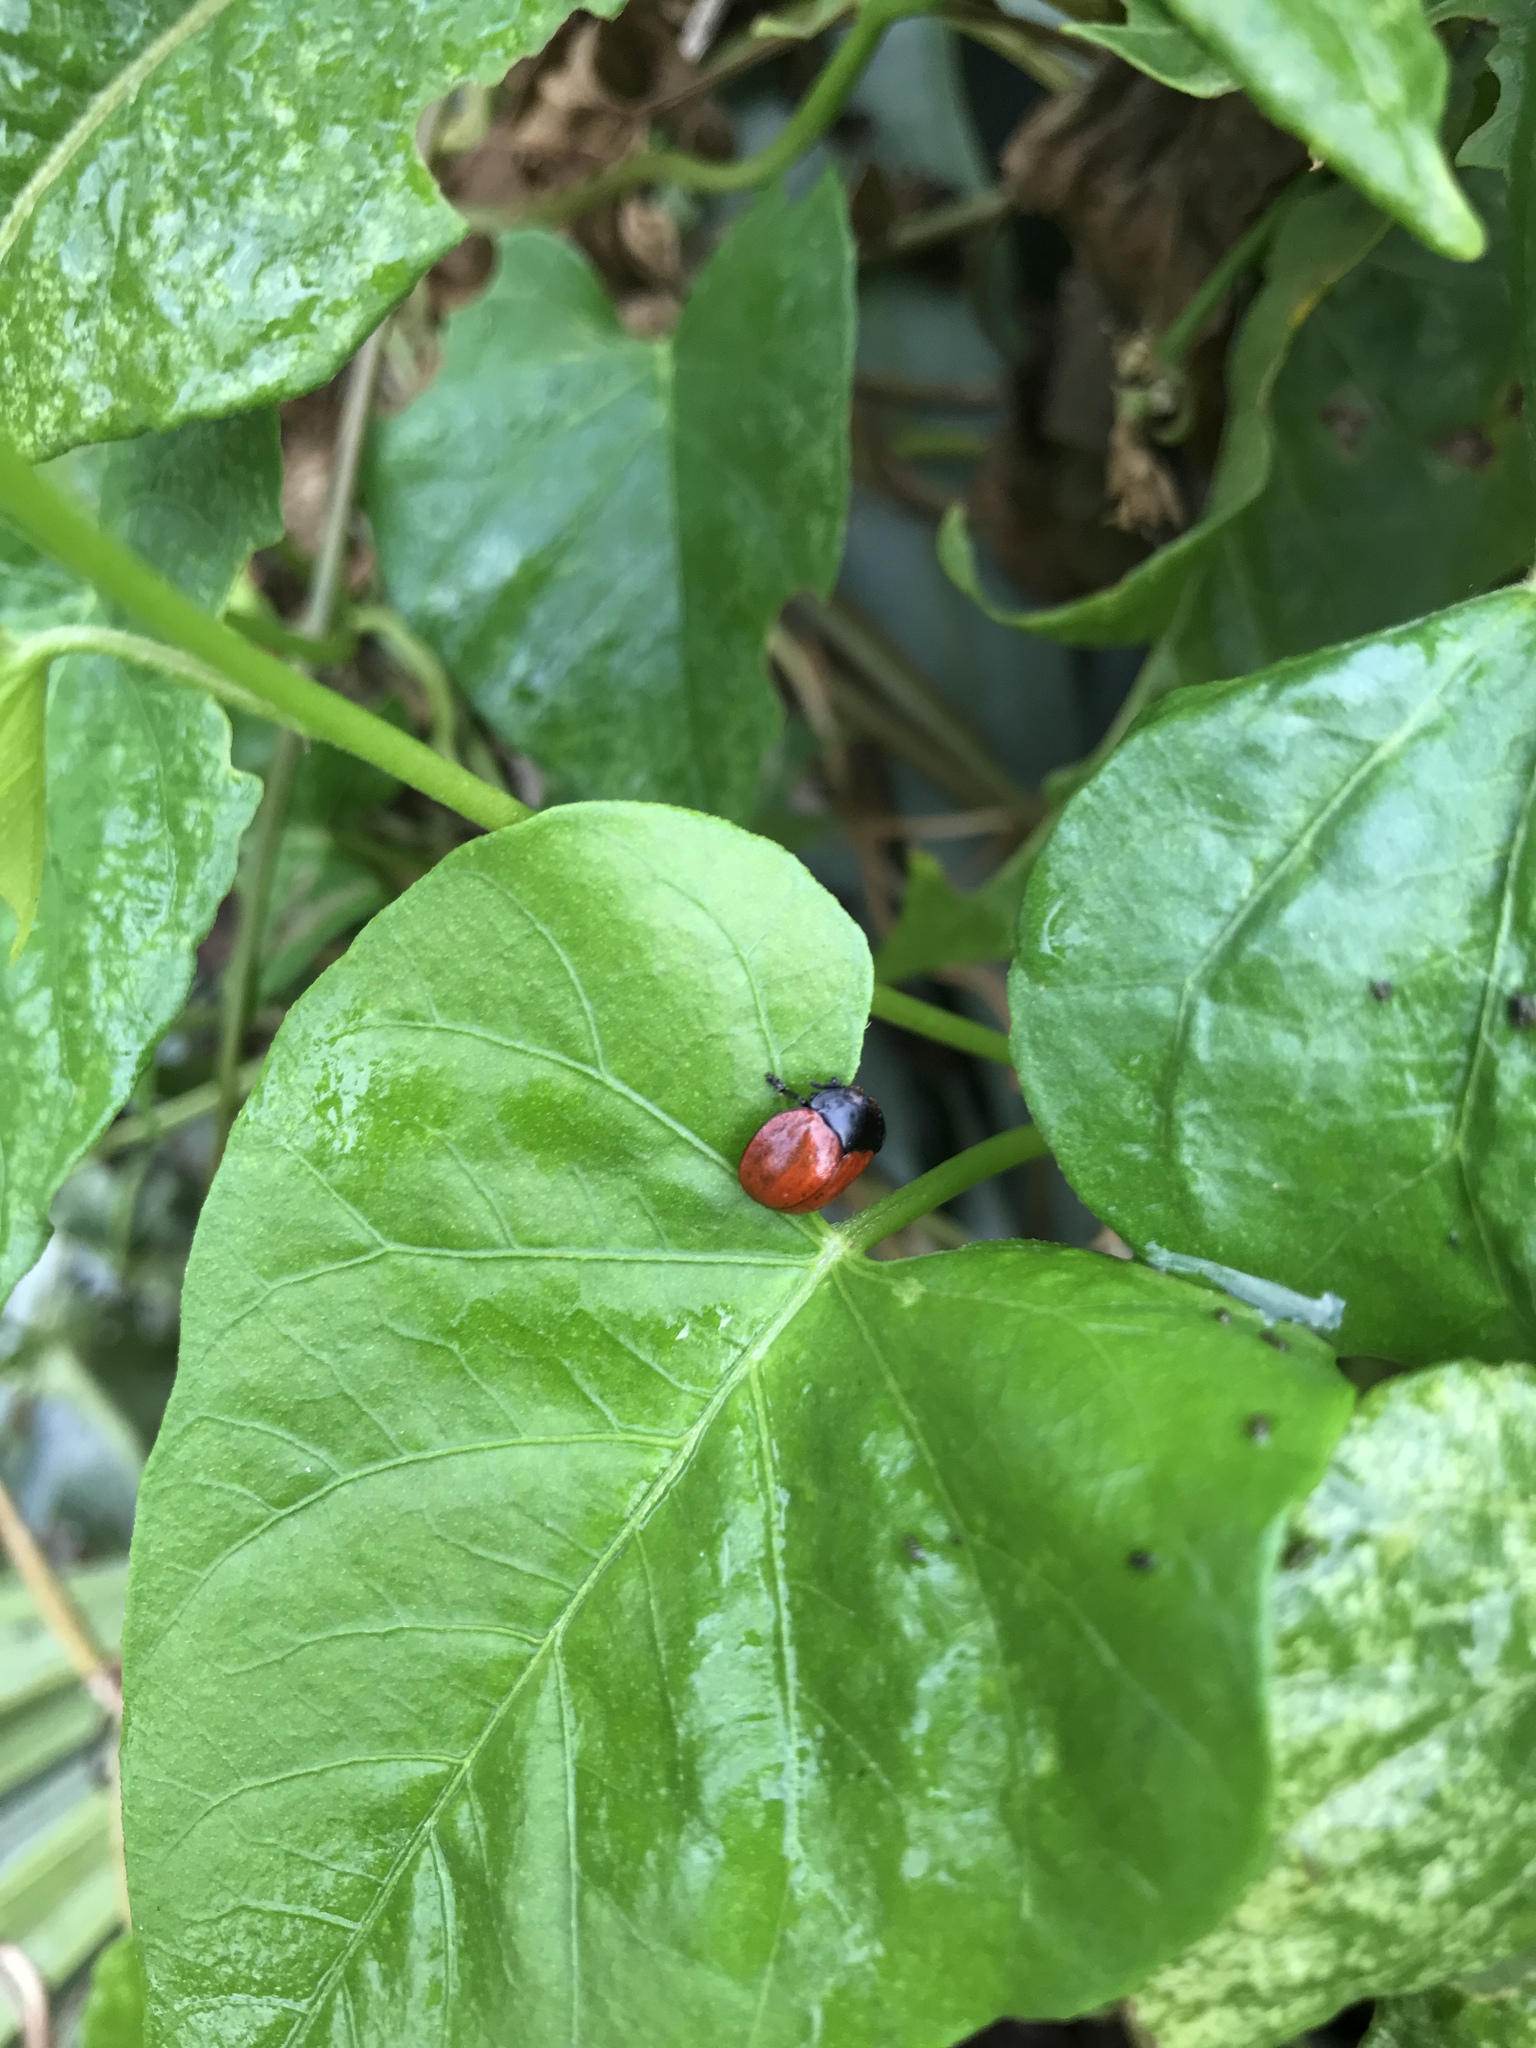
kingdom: Animalia
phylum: Arthropoda
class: Insecta
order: Coleoptera
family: Chrysomelidae
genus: Chelymorpha
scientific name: Chelymorpha cribraria
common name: Tortoise beetle
